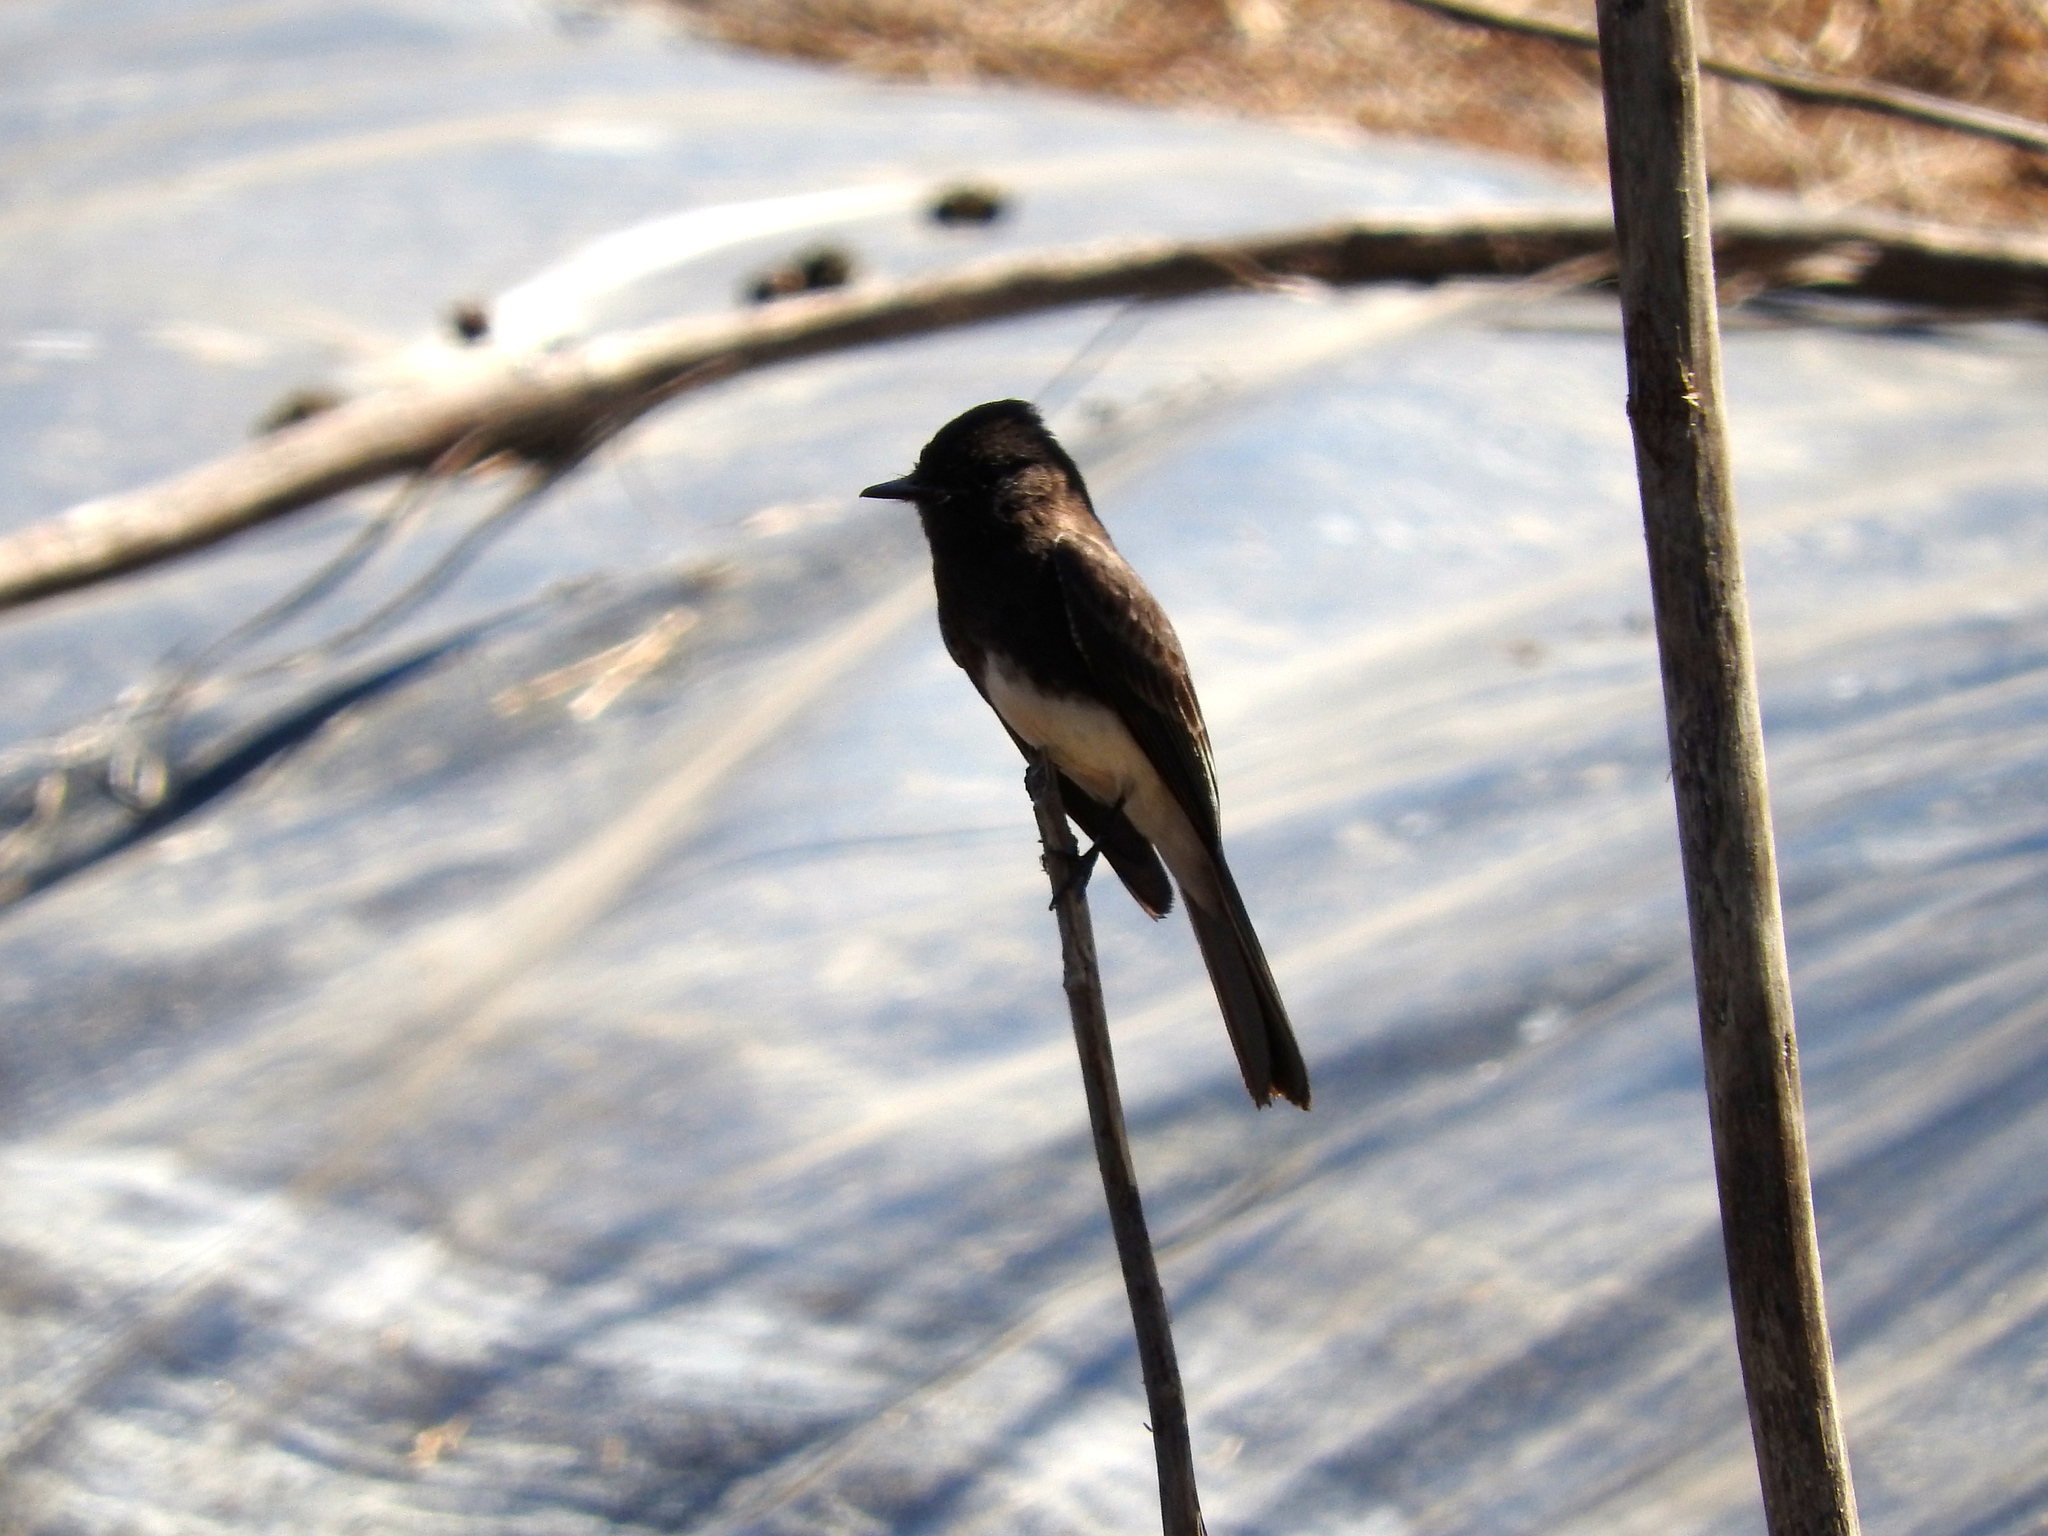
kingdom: Animalia
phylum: Chordata
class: Aves
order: Passeriformes
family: Tyrannidae
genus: Sayornis
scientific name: Sayornis nigricans
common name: Black phoebe
